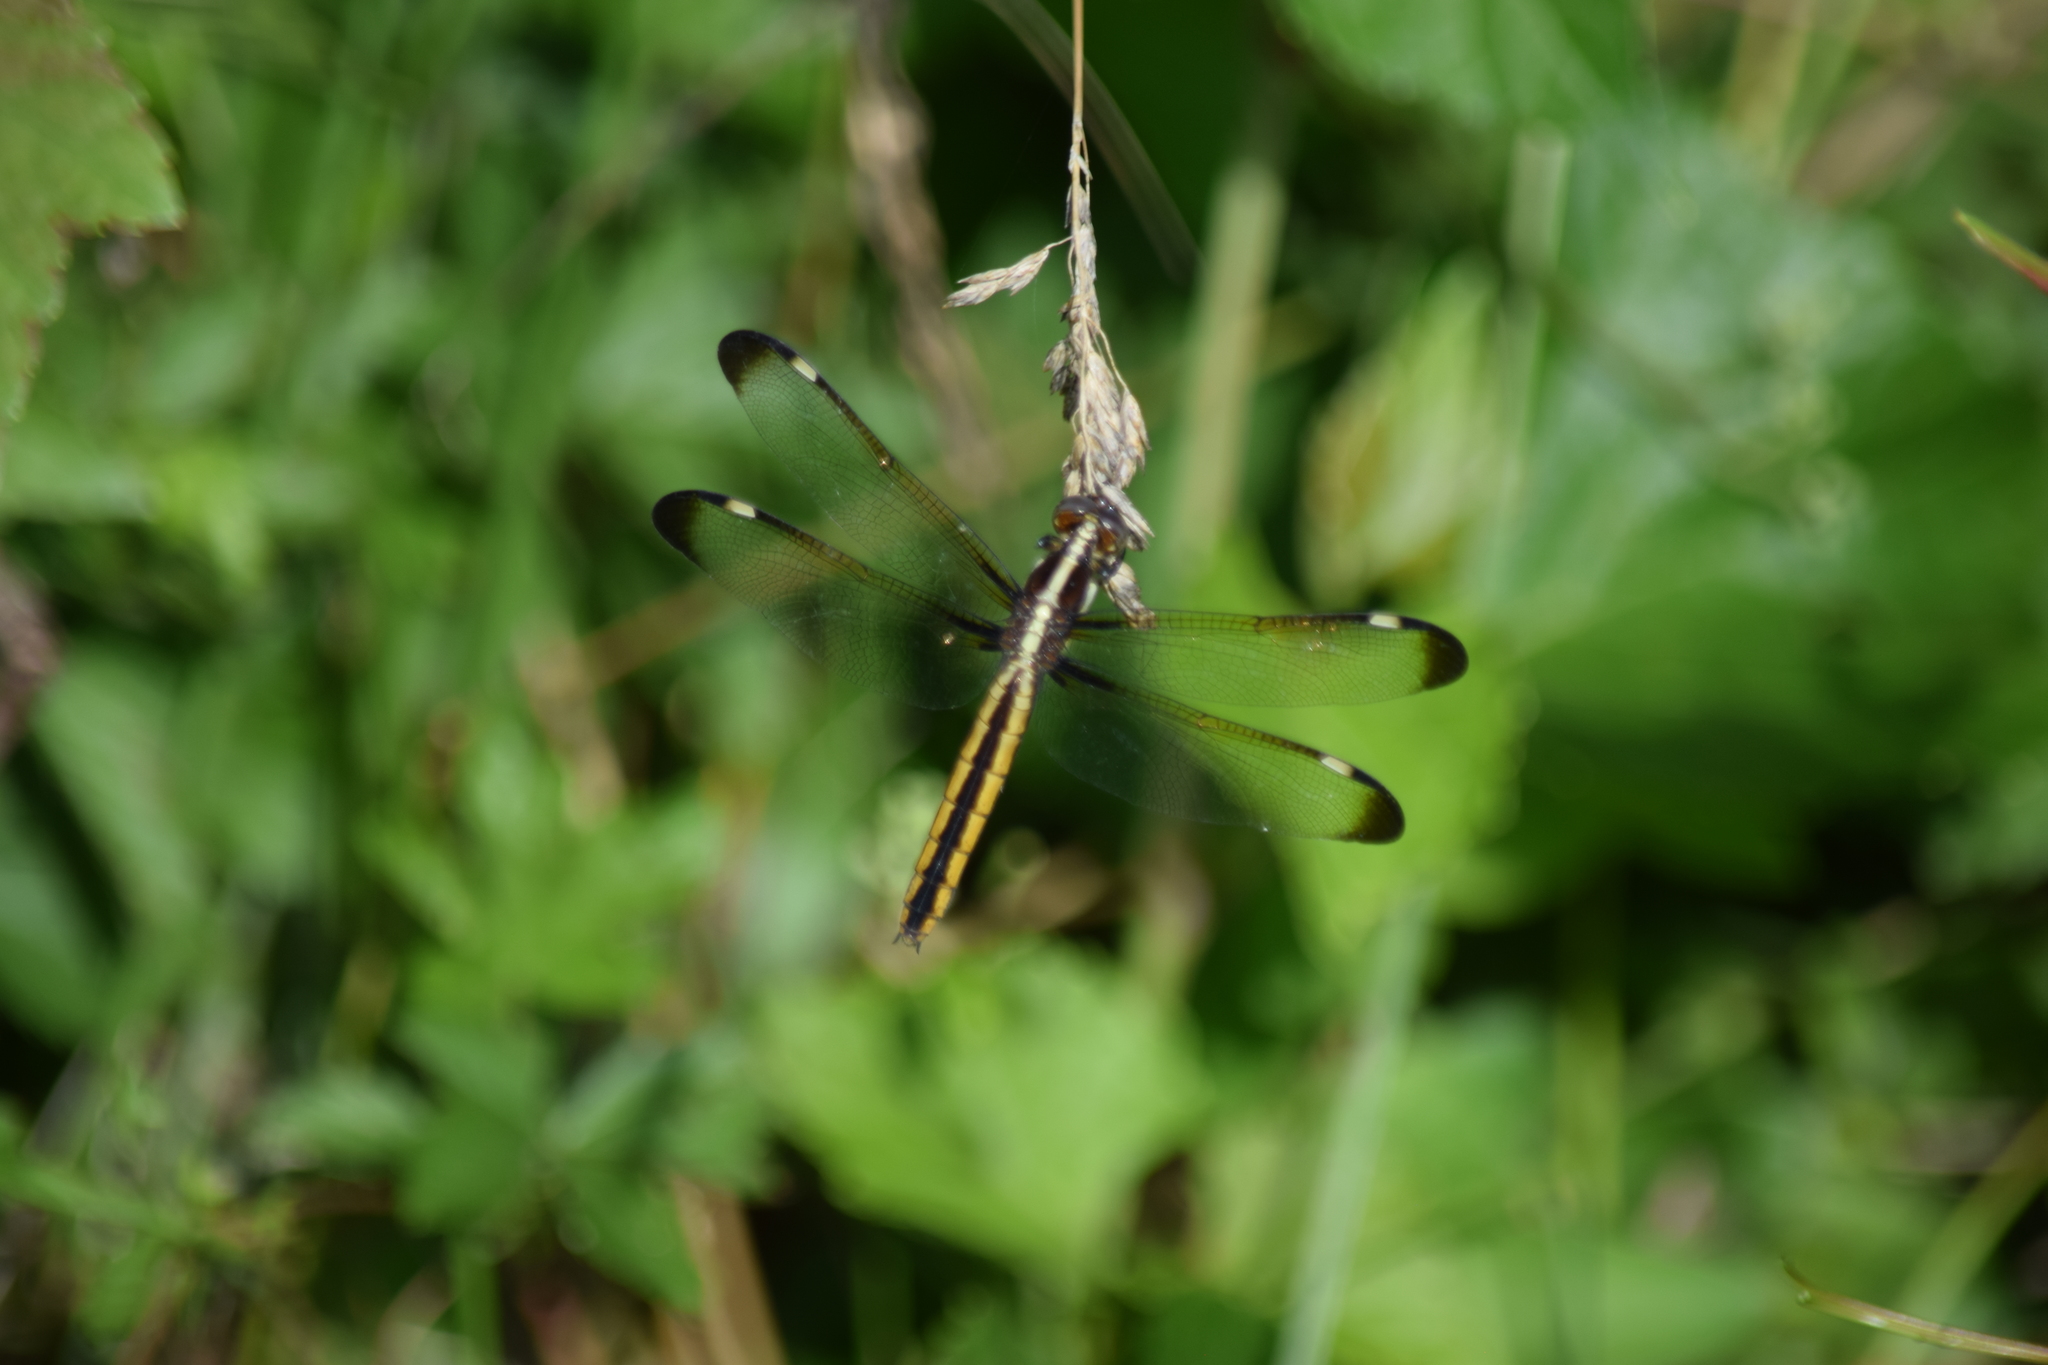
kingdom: Animalia
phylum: Arthropoda
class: Insecta
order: Odonata
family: Libellulidae
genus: Libellula
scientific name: Libellula cyanea
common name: Spangled skimmer
